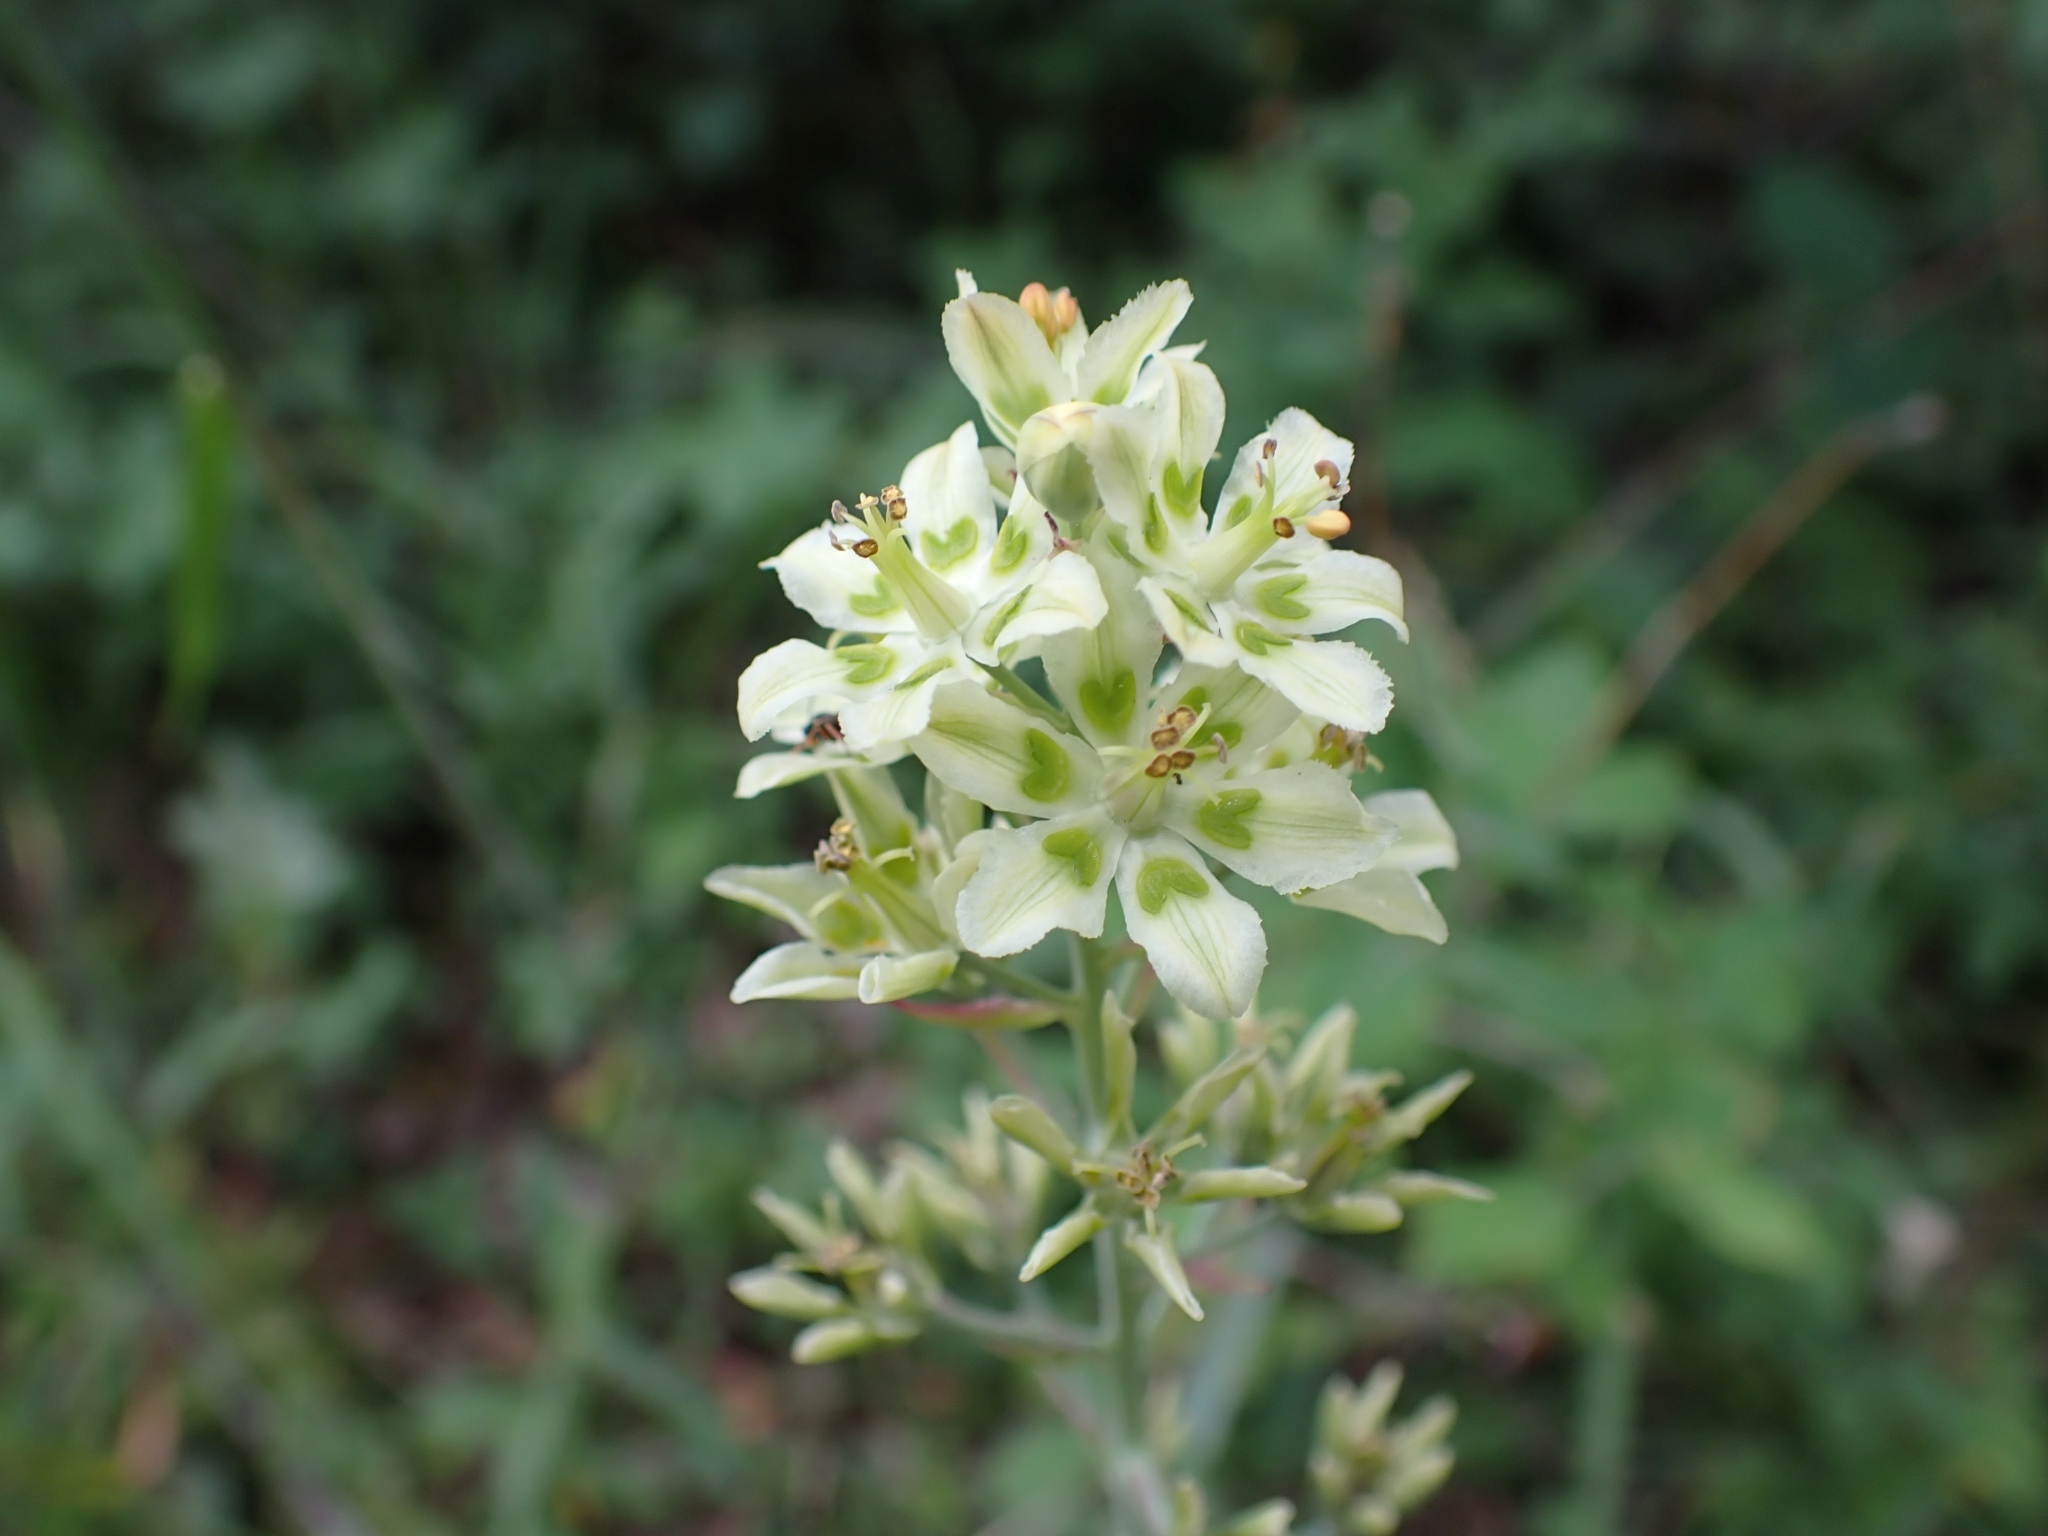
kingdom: Plantae
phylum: Tracheophyta
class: Liliopsida
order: Liliales
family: Melanthiaceae
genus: Anticlea
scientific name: Anticlea elegans
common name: Mountain death camas
